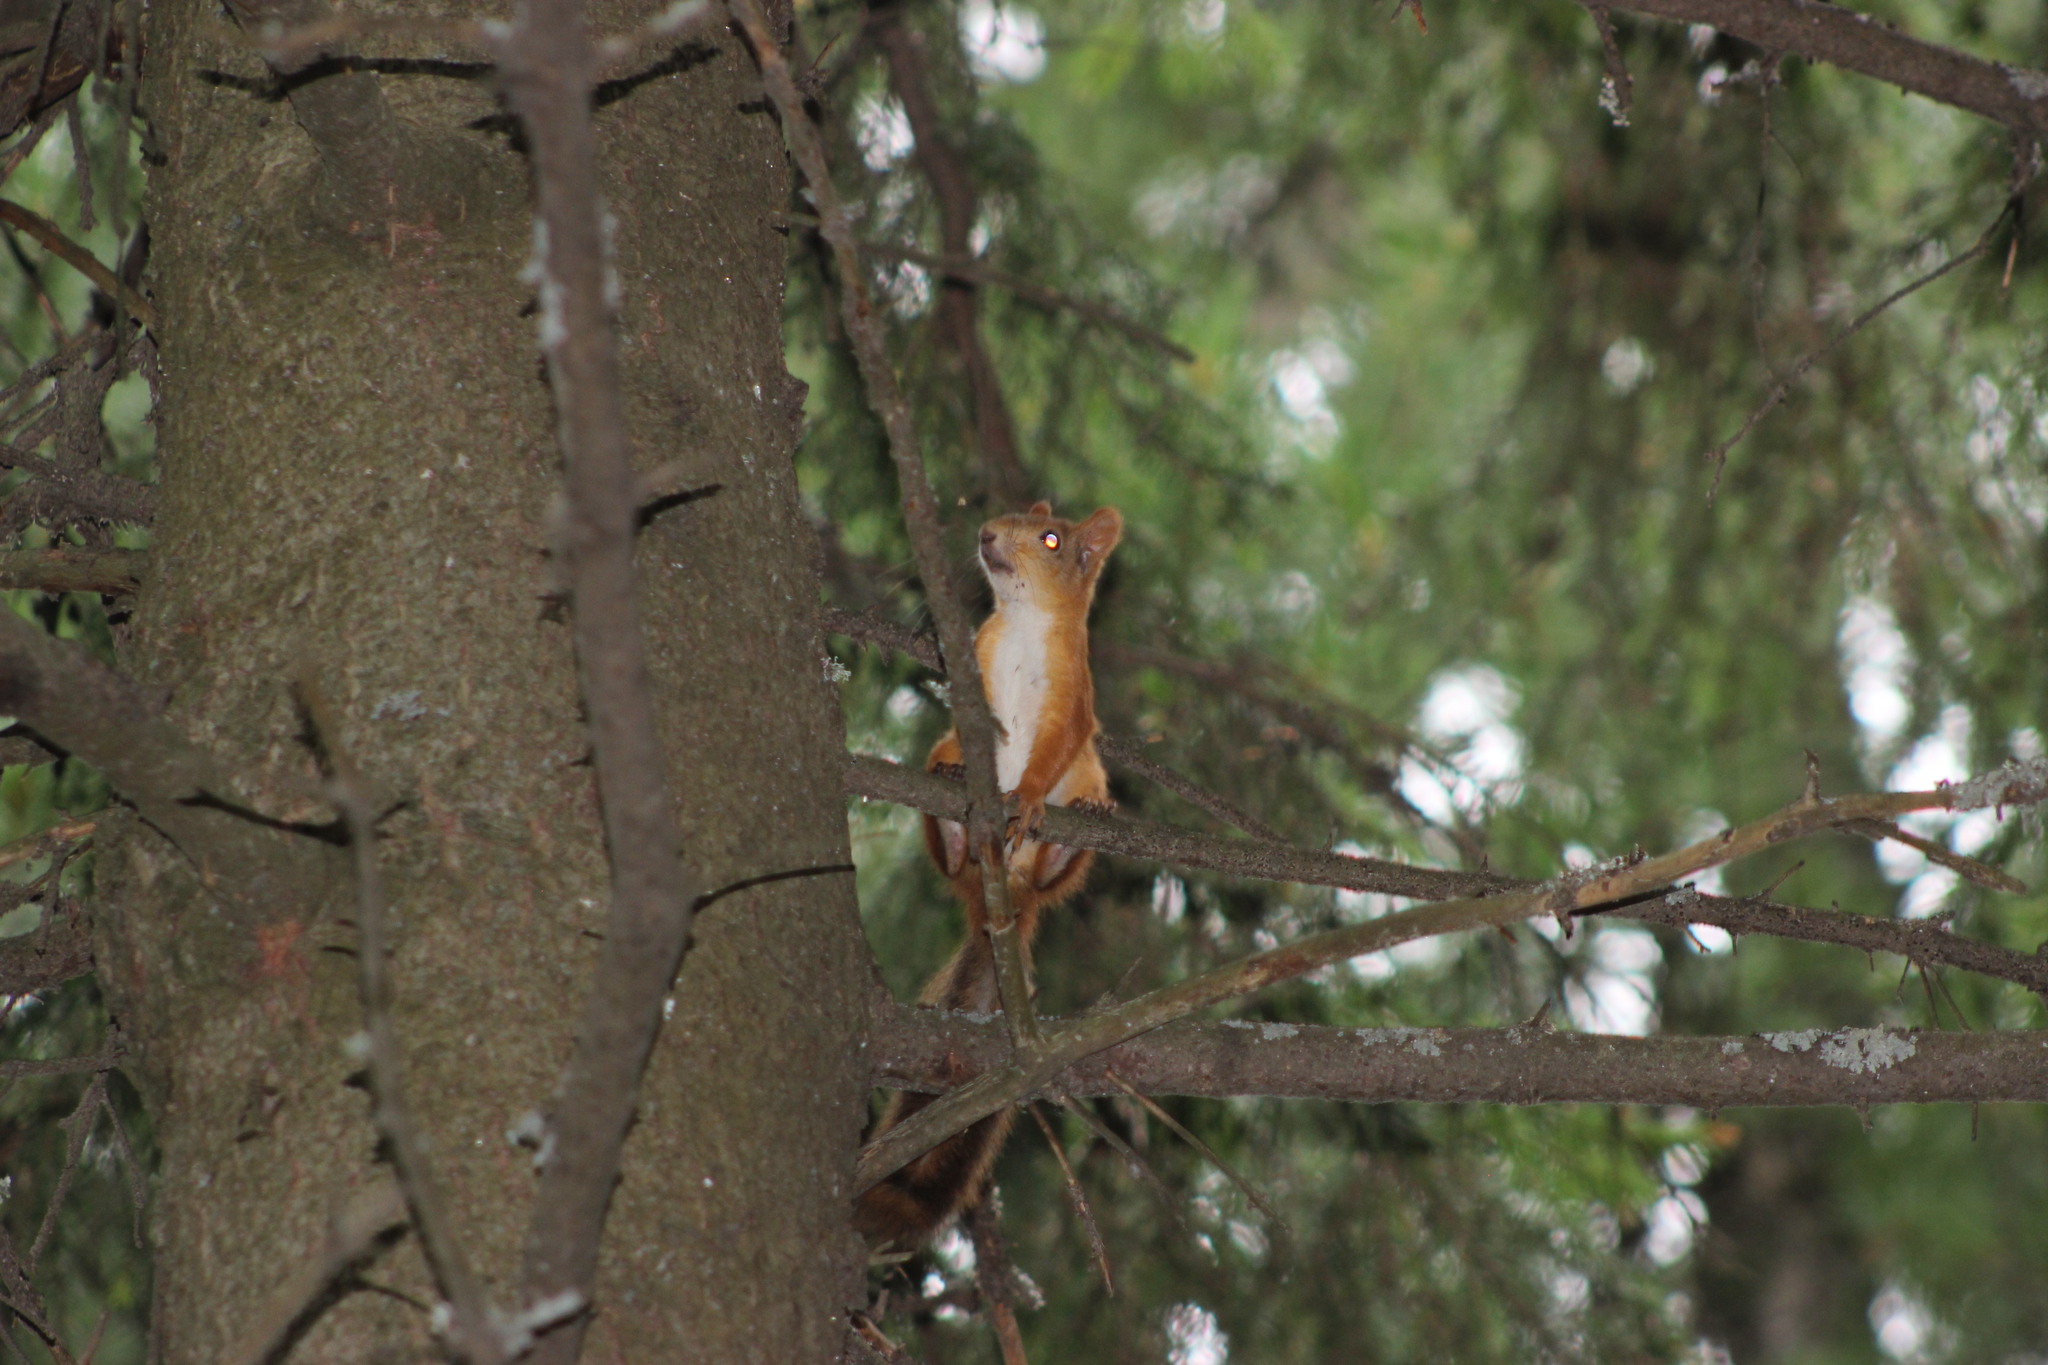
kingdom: Animalia
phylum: Chordata
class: Mammalia
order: Rodentia
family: Sciuridae
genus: Sciurus
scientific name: Sciurus vulgaris
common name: Eurasian red squirrel
